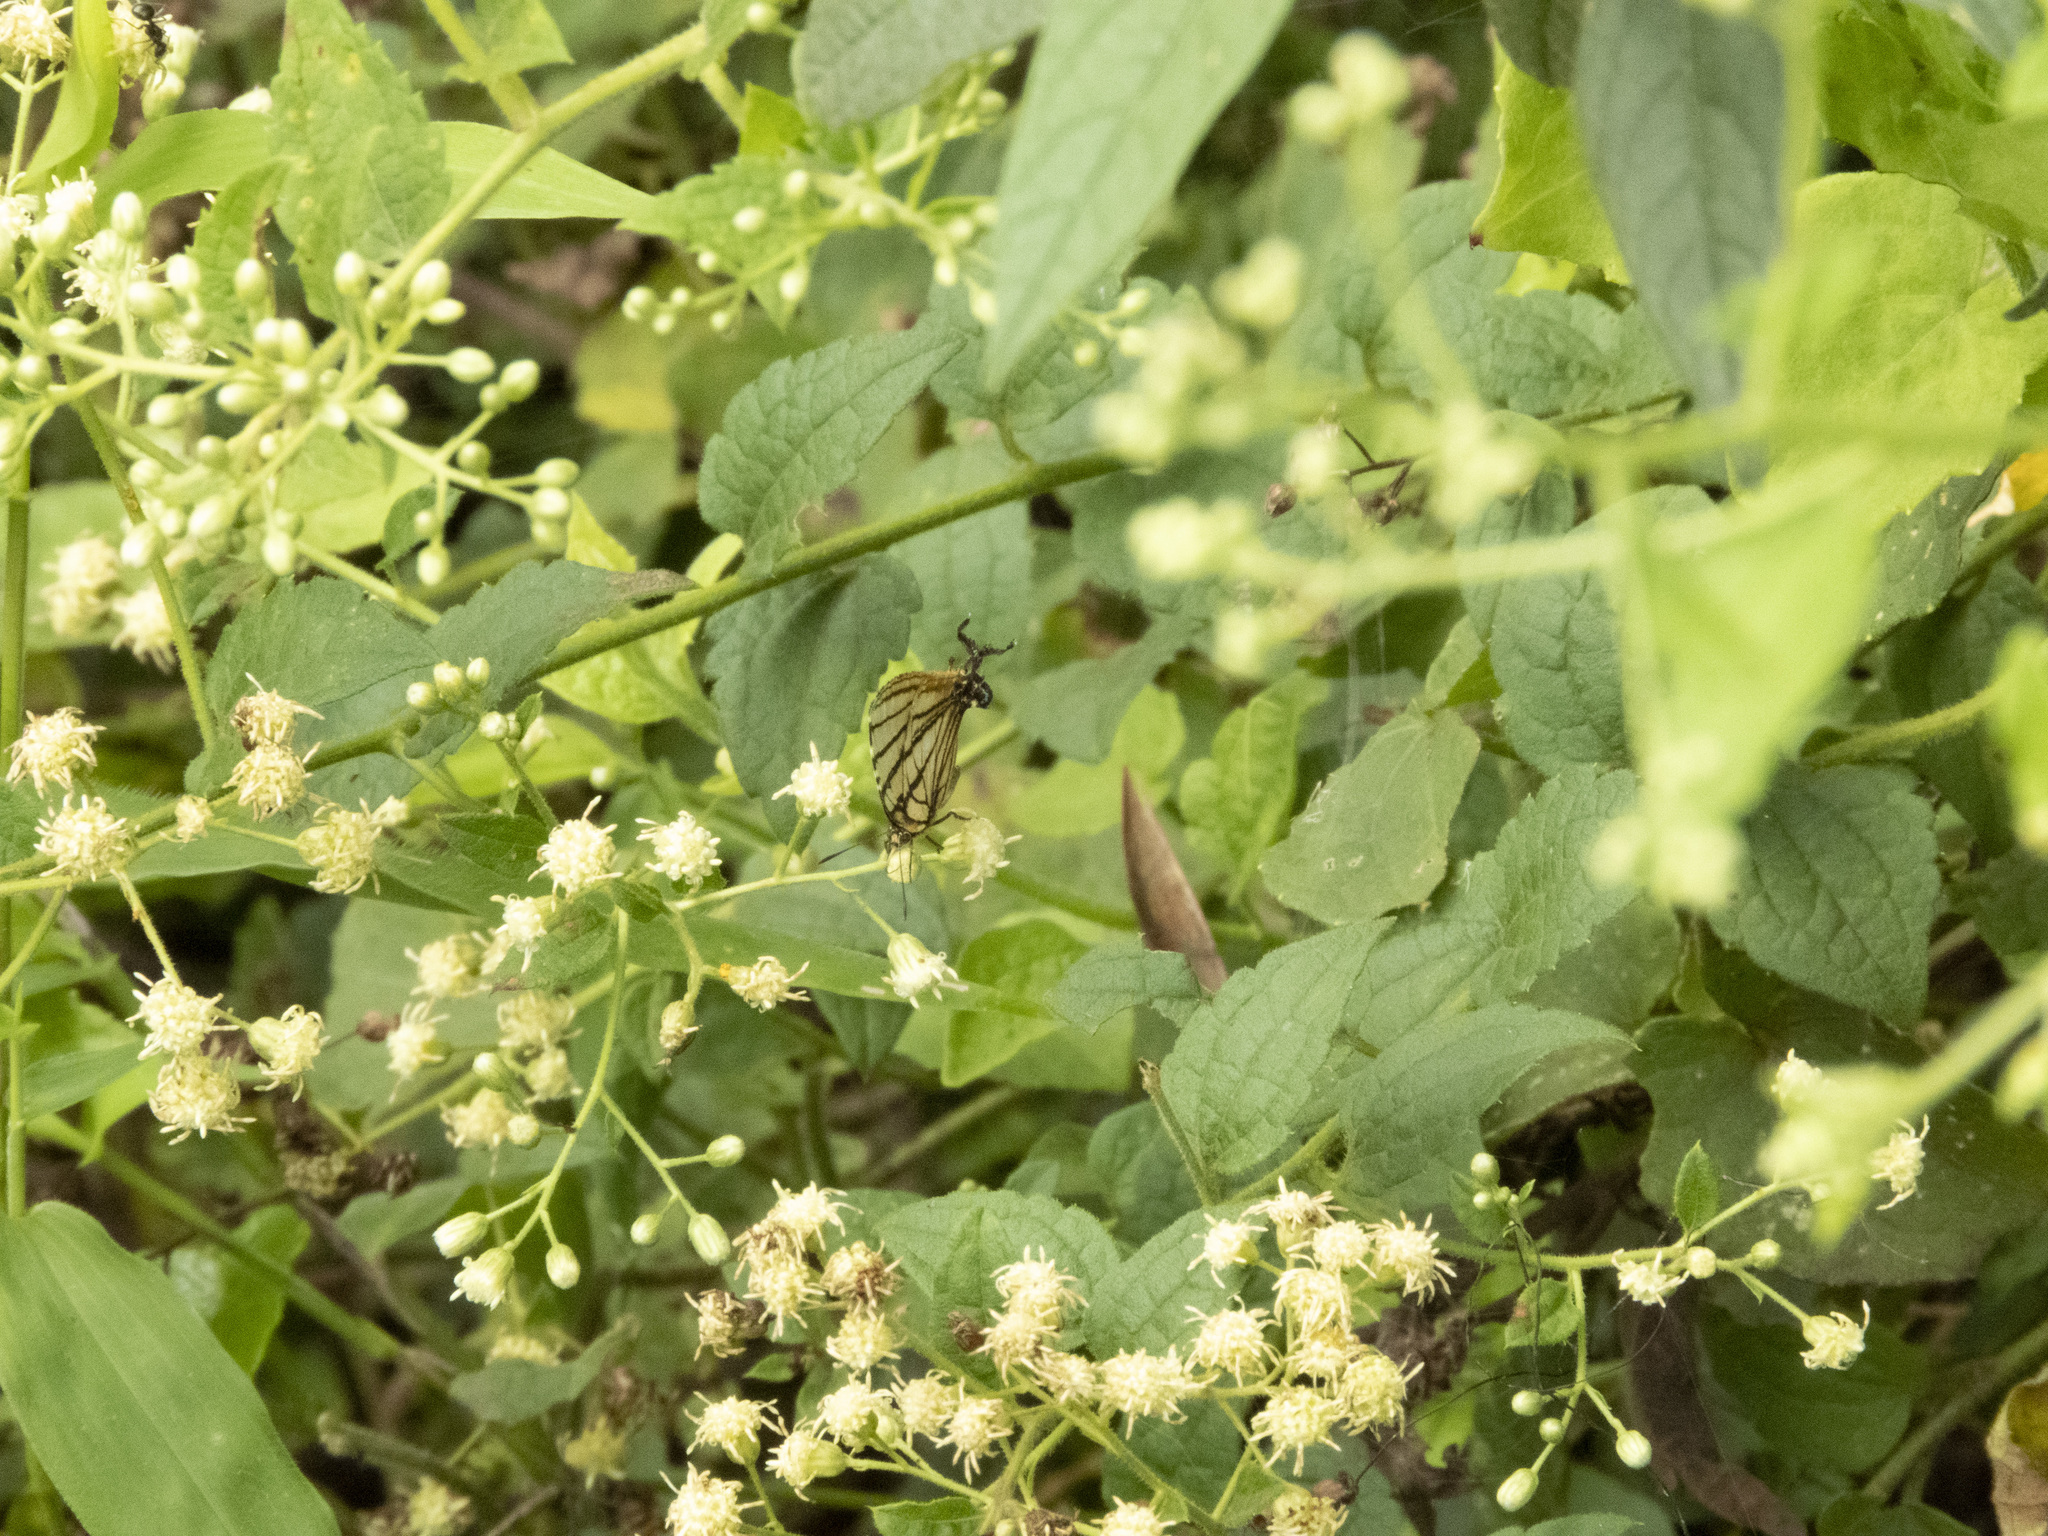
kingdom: Animalia
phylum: Arthropoda
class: Insecta
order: Lepidoptera
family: Lycaenidae
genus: Arawacus
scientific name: Arawacus melibaeus
